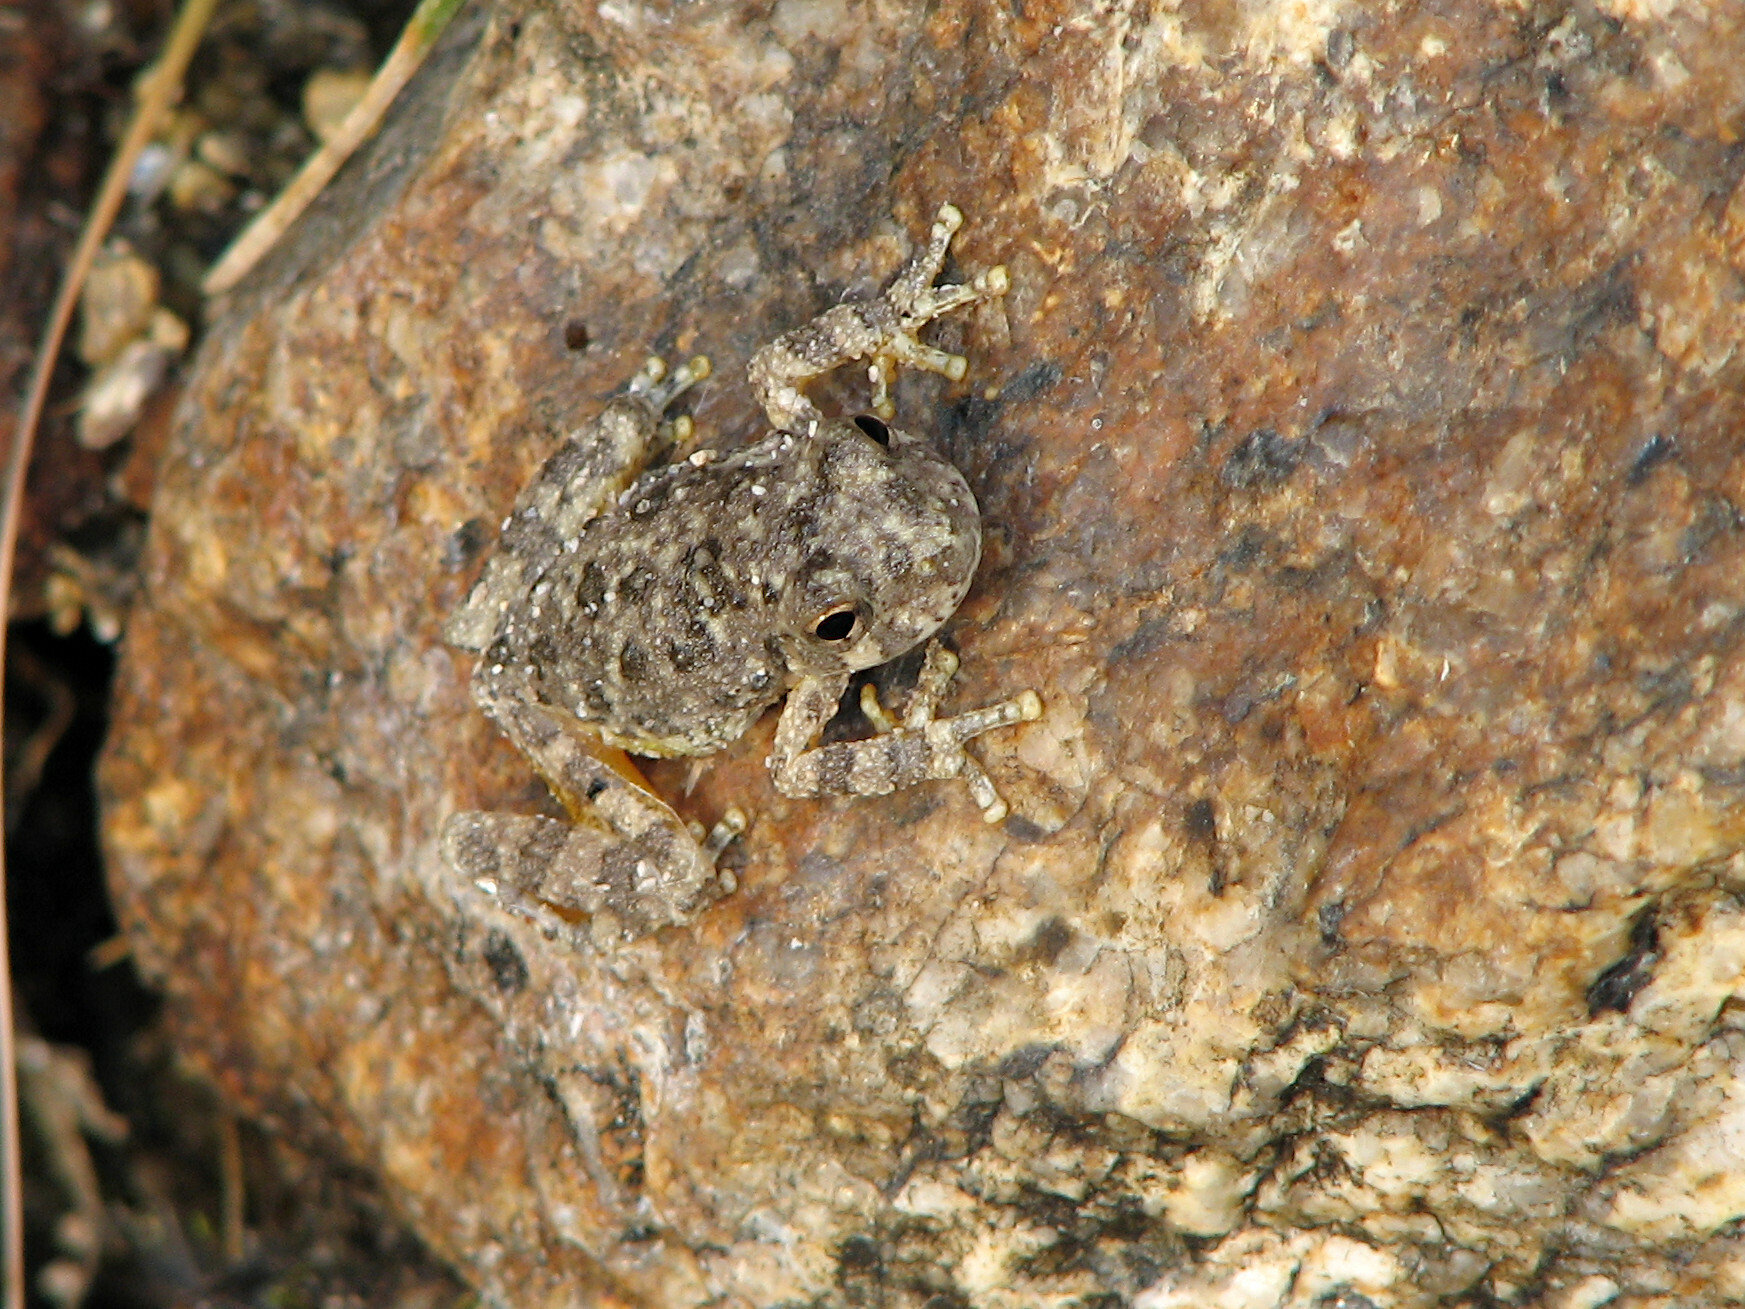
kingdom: Animalia
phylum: Chordata
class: Amphibia
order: Anura
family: Hylidae
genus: Dryophytes
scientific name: Dryophytes arenicolor
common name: Canyon treefrog
